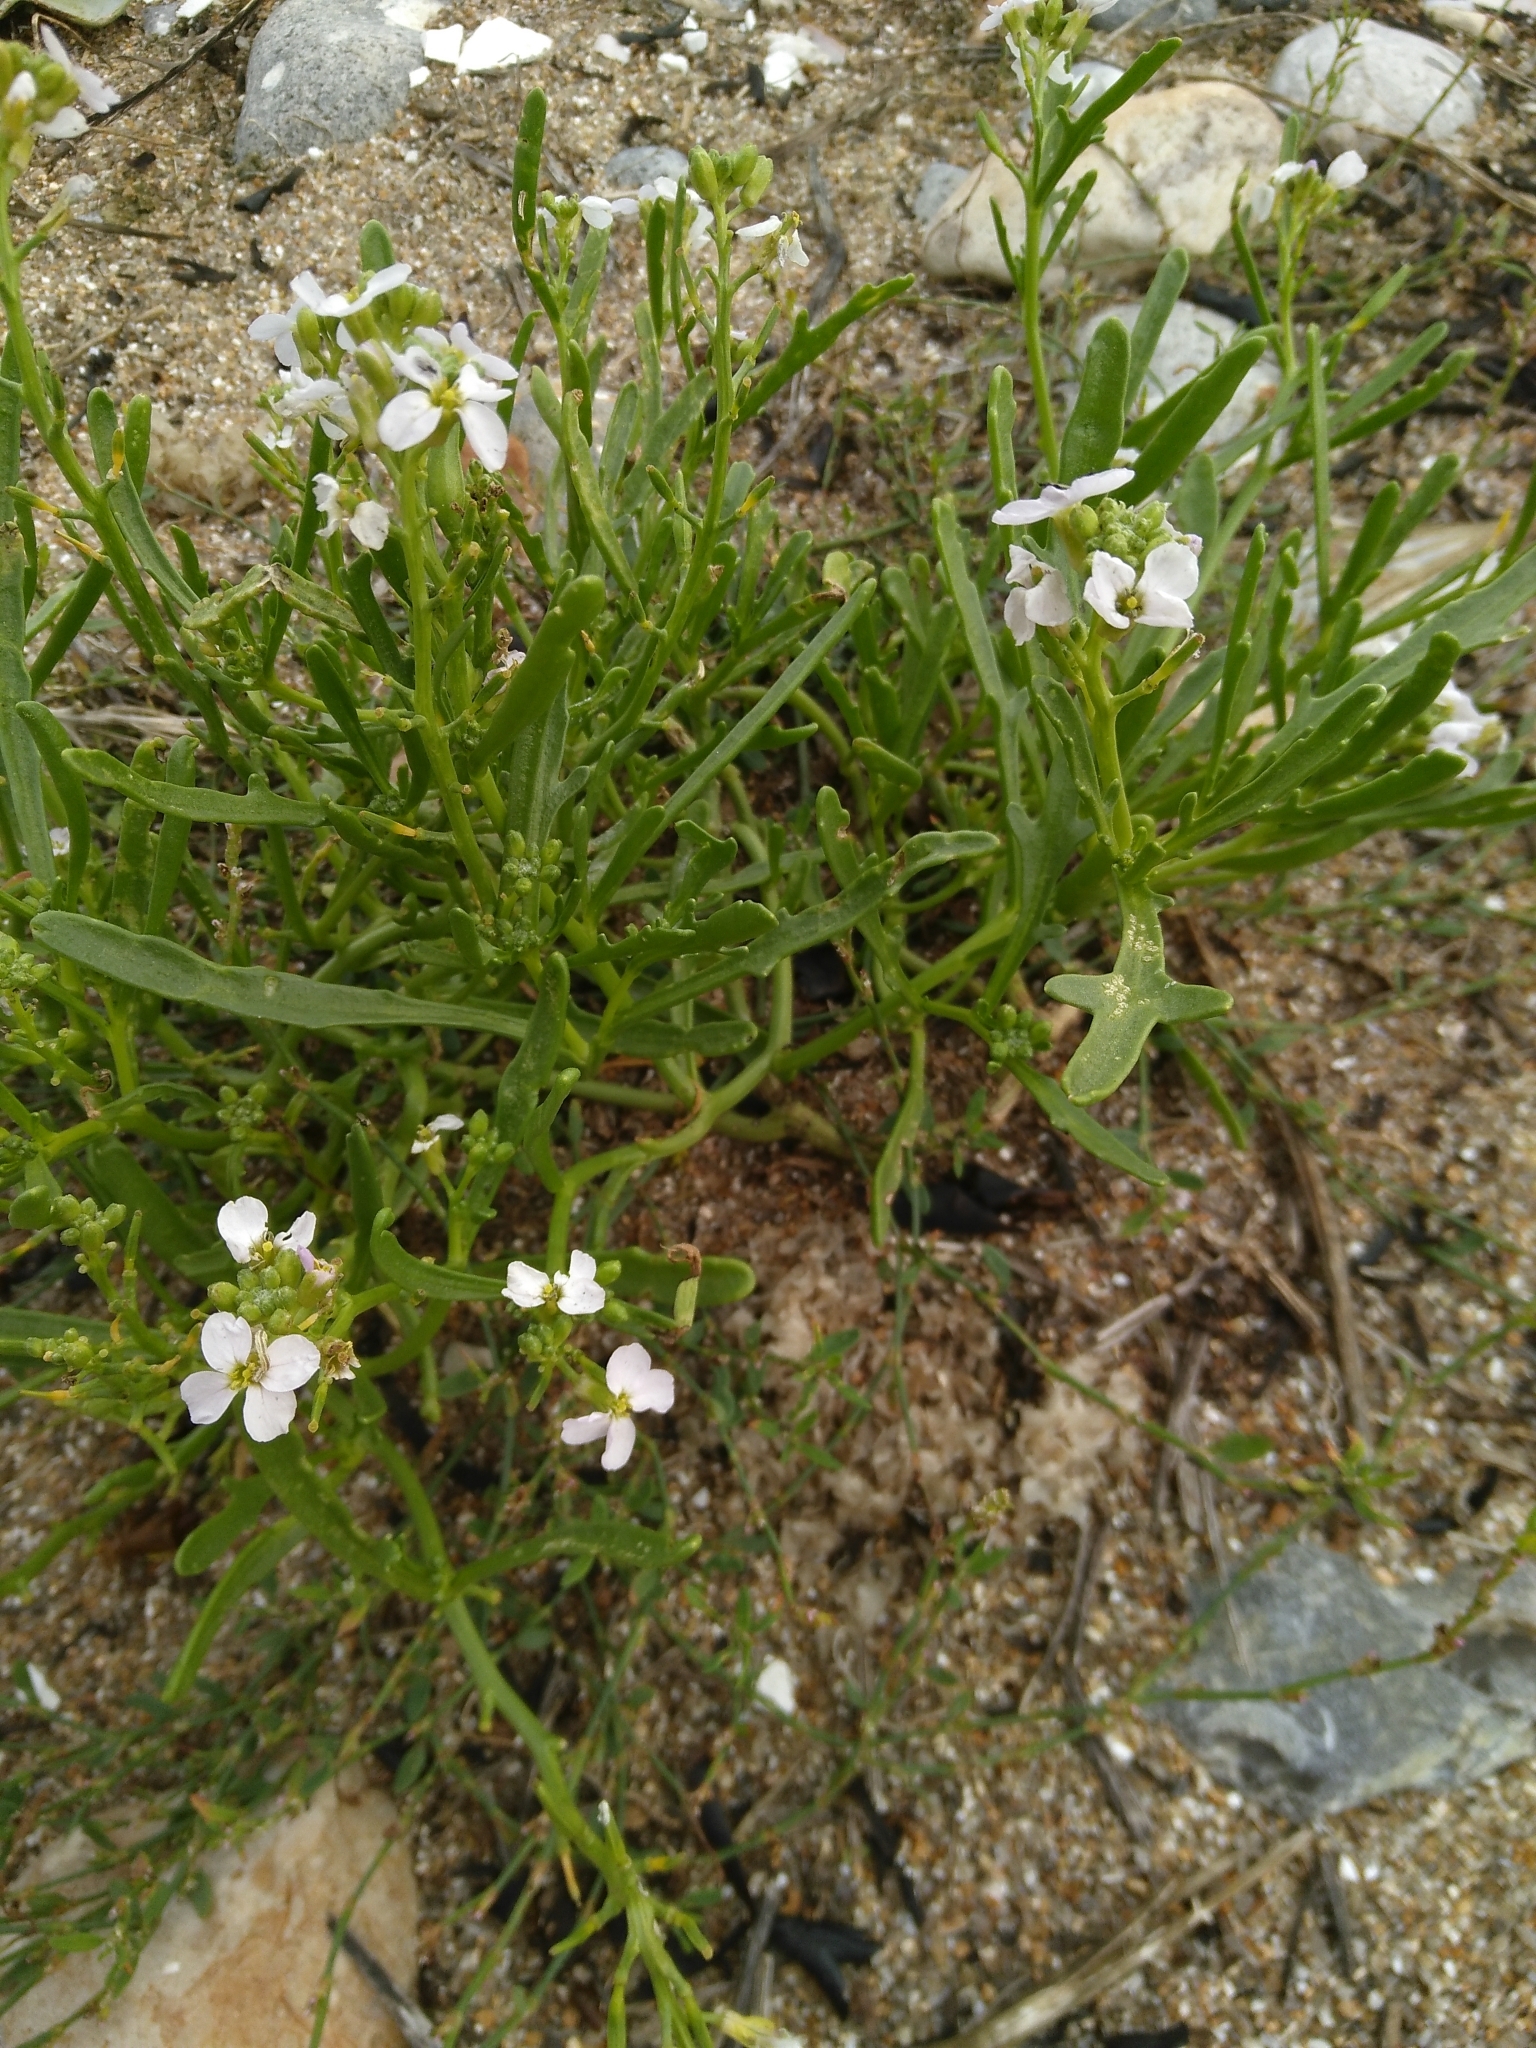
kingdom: Plantae
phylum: Tracheophyta
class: Magnoliopsida
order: Brassicales
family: Brassicaceae
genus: Cakile
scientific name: Cakile maritima
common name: Sea rocket
